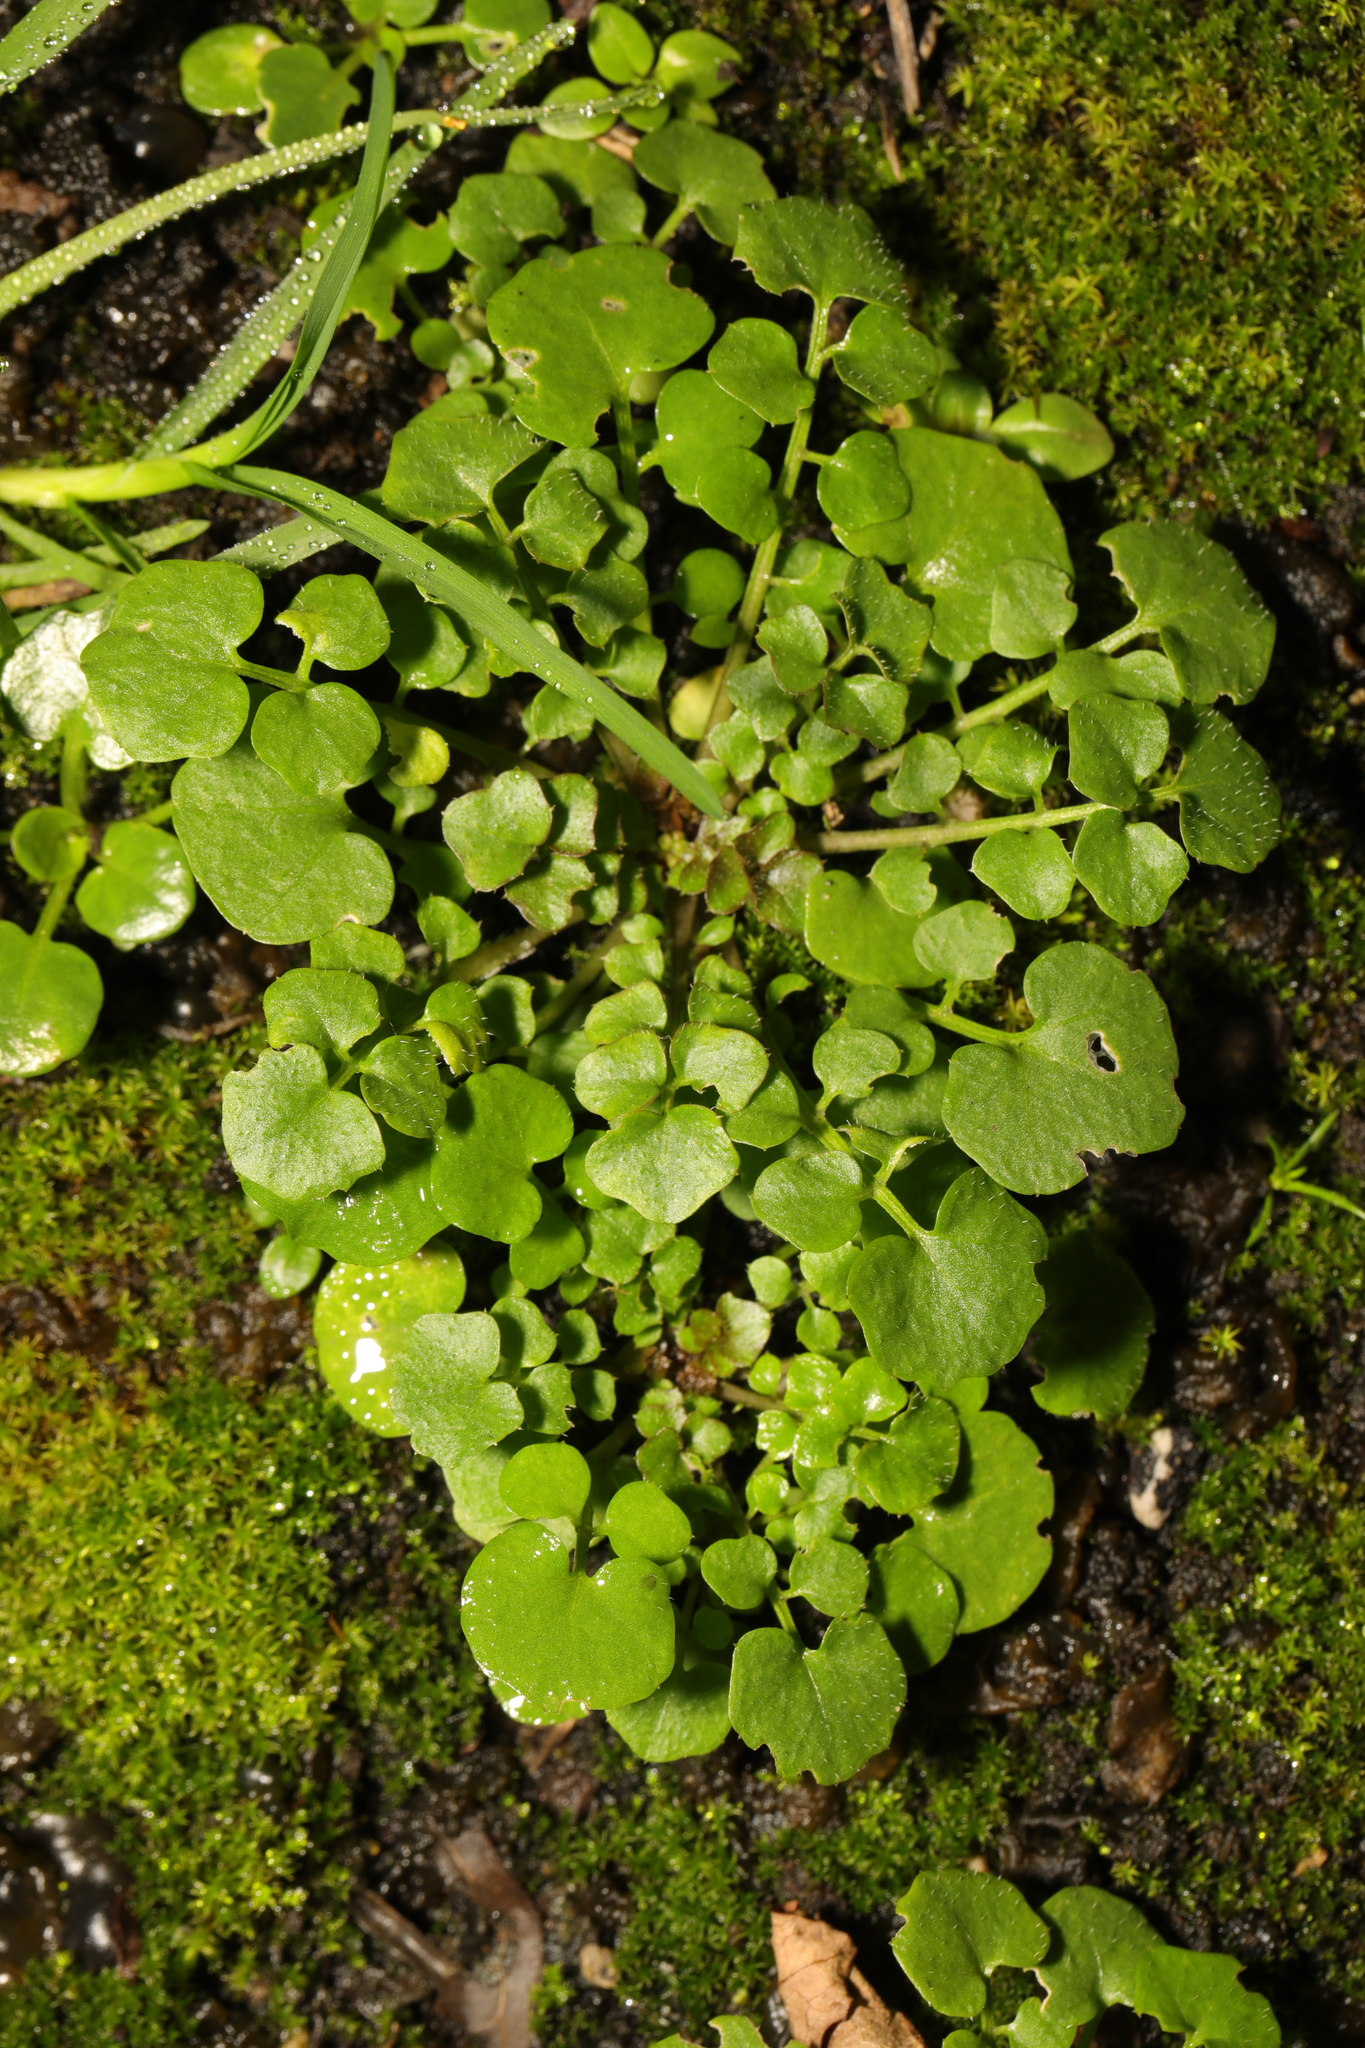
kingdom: Plantae
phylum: Tracheophyta
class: Magnoliopsida
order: Brassicales
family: Brassicaceae
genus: Cardamine
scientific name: Cardamine hirsuta
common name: Hairy bittercress
